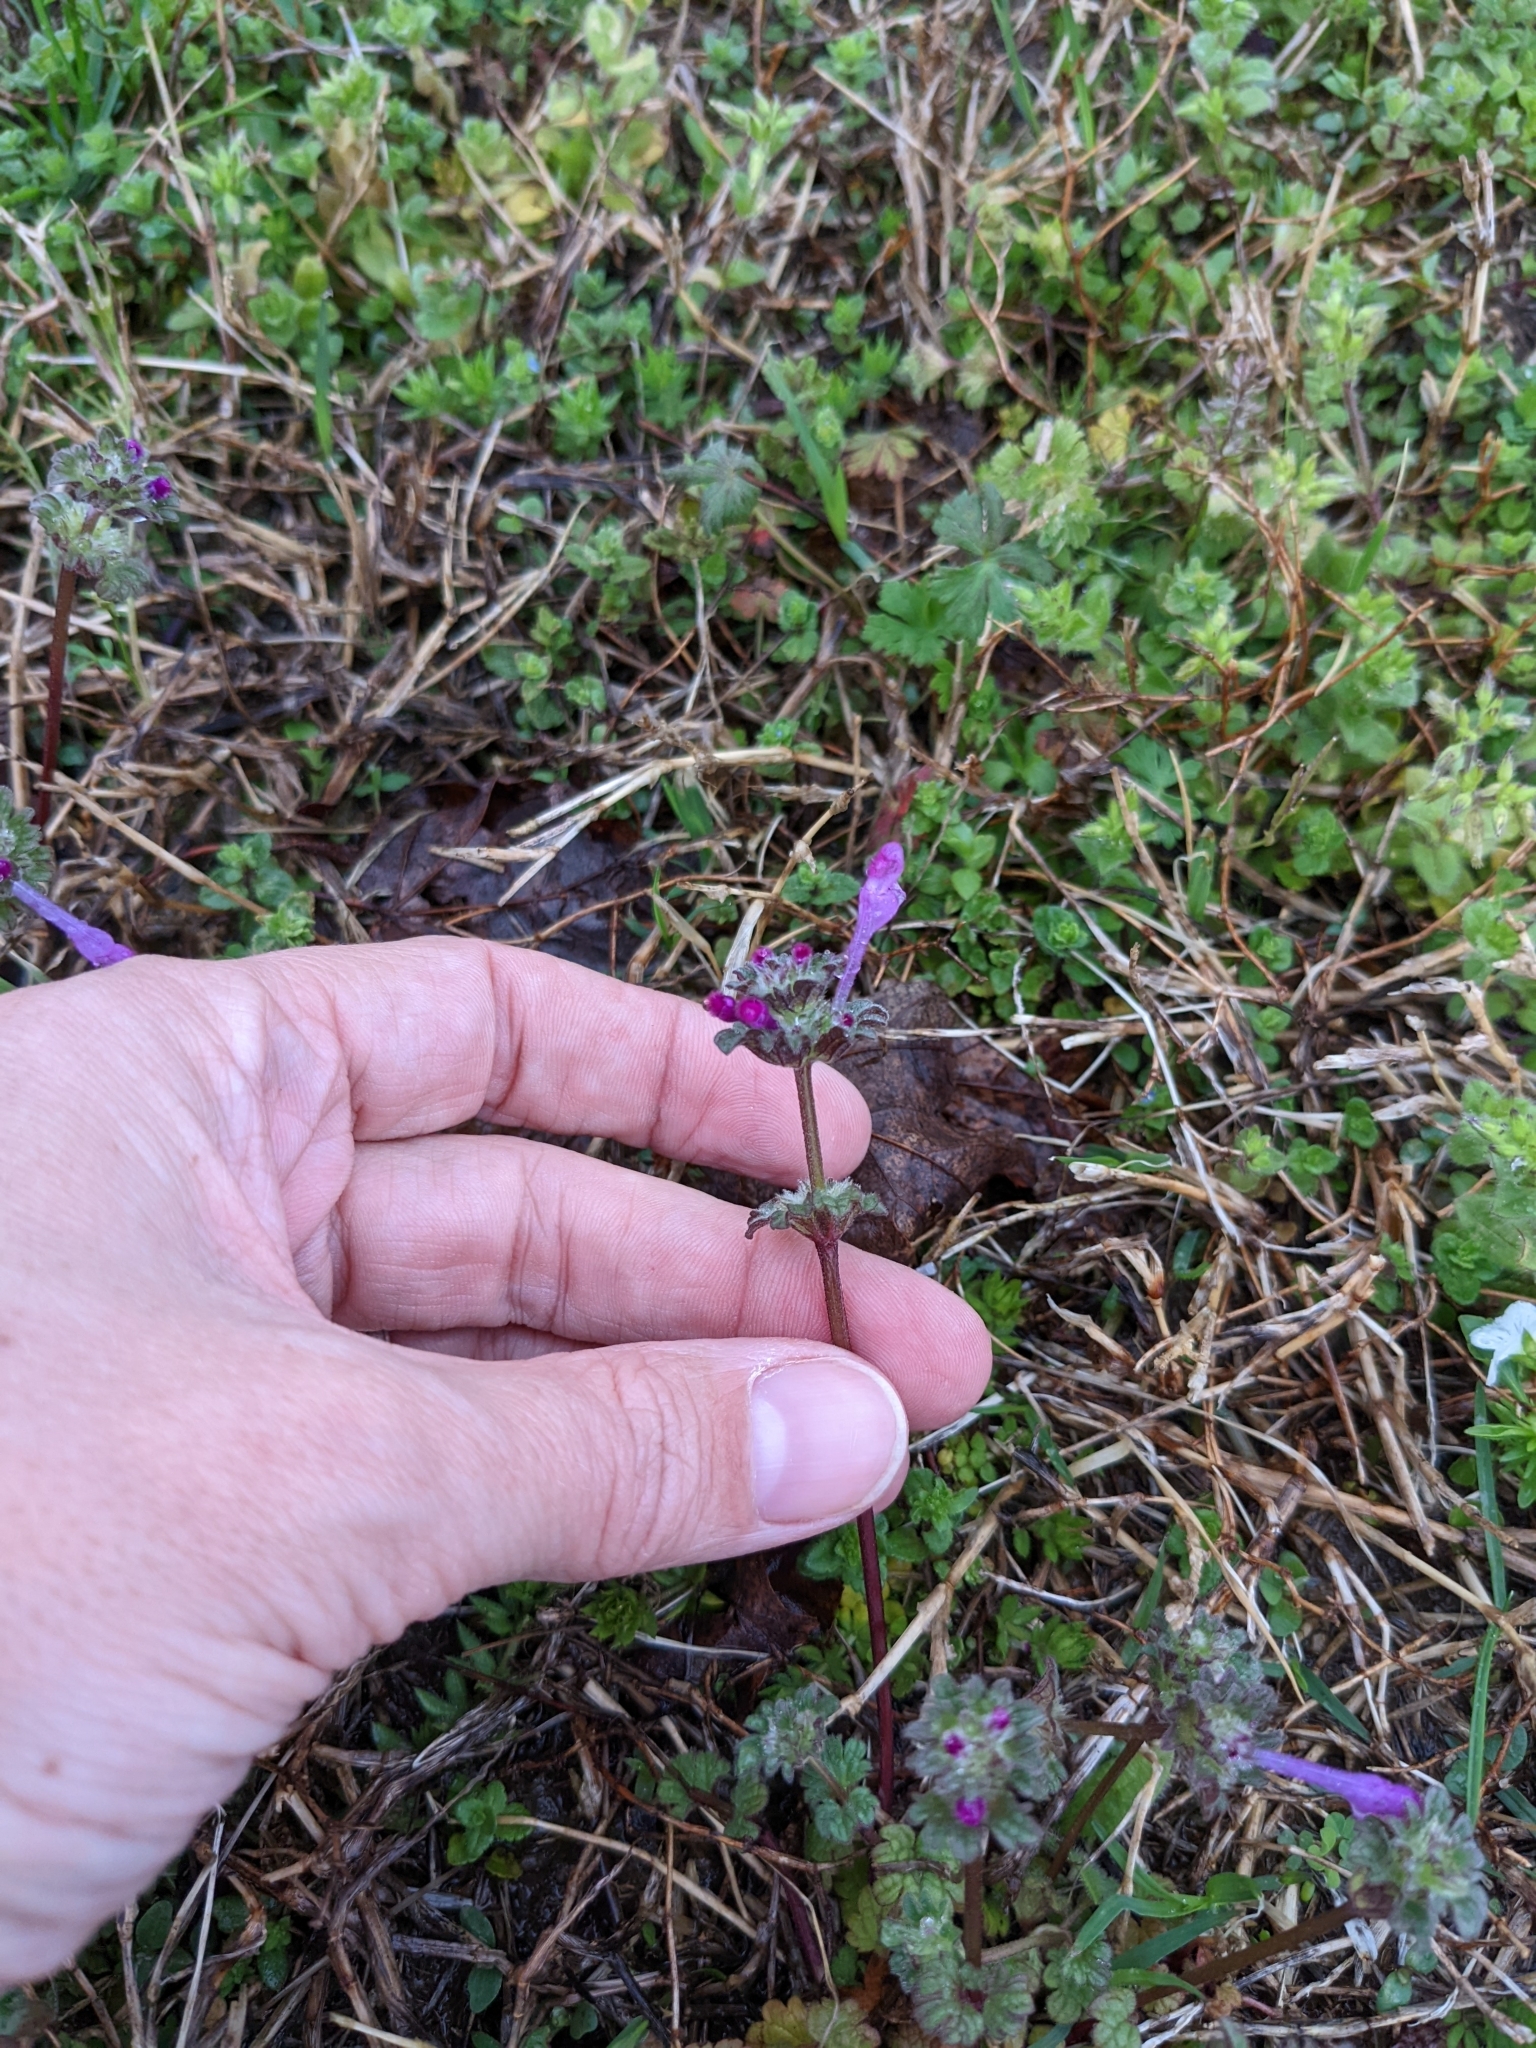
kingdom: Plantae
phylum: Tracheophyta
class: Magnoliopsida
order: Lamiales
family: Lamiaceae
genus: Lamium
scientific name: Lamium amplexicaule
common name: Henbit dead-nettle
